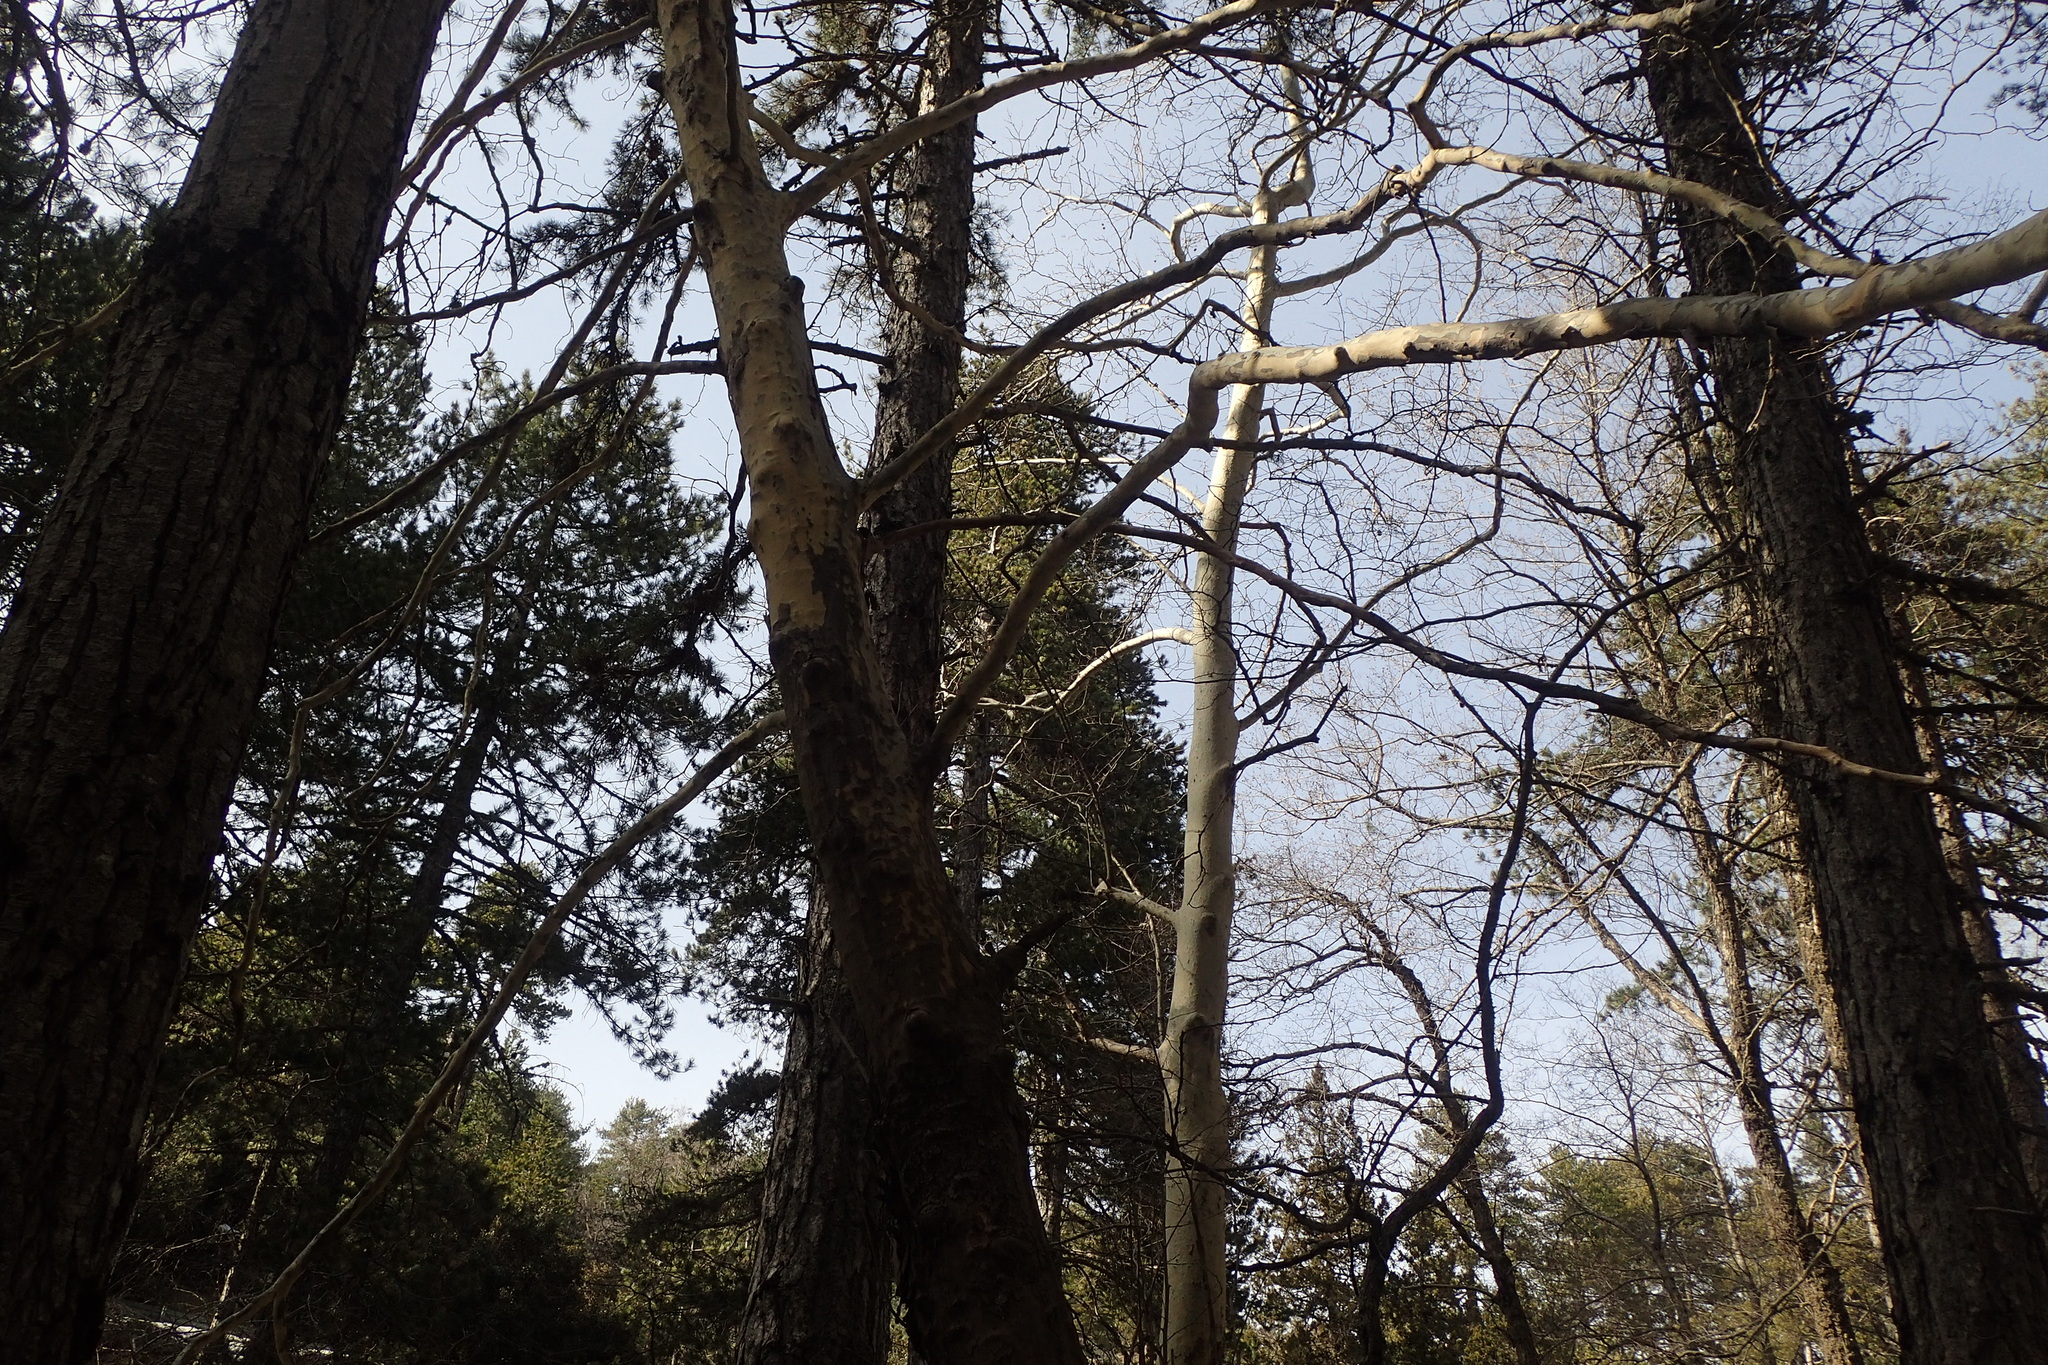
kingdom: Plantae
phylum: Tracheophyta
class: Magnoliopsida
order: Proteales
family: Platanaceae
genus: Platanus
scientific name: Platanus orientalis
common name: Oriental plane
